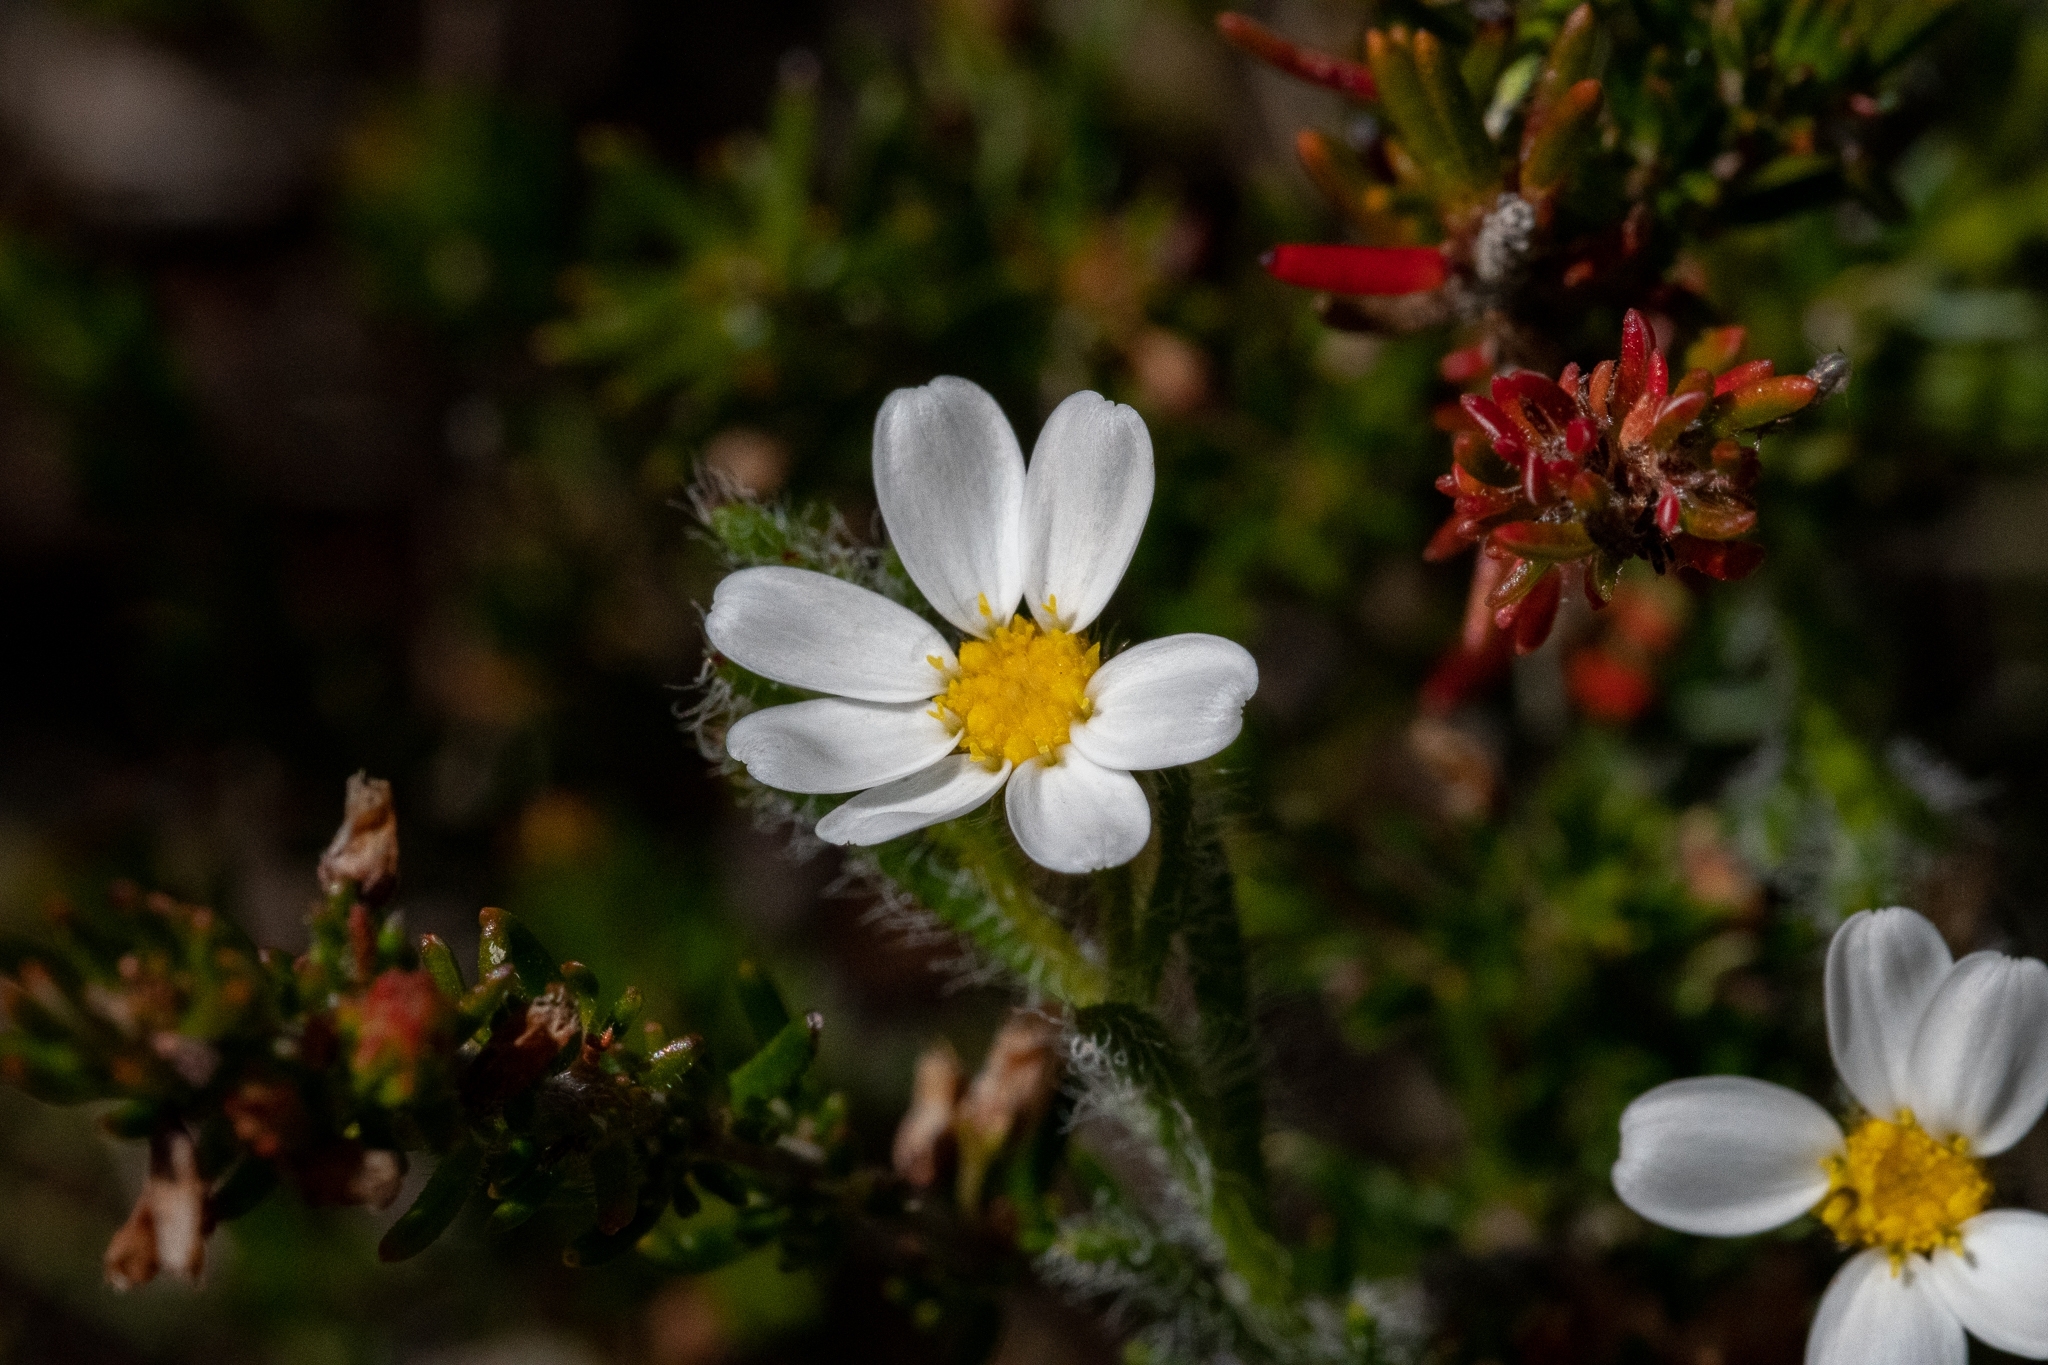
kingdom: Plantae
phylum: Tracheophyta
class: Magnoliopsida
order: Asterales
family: Asteraceae
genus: Zyrphelis
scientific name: Zyrphelis foliosa
